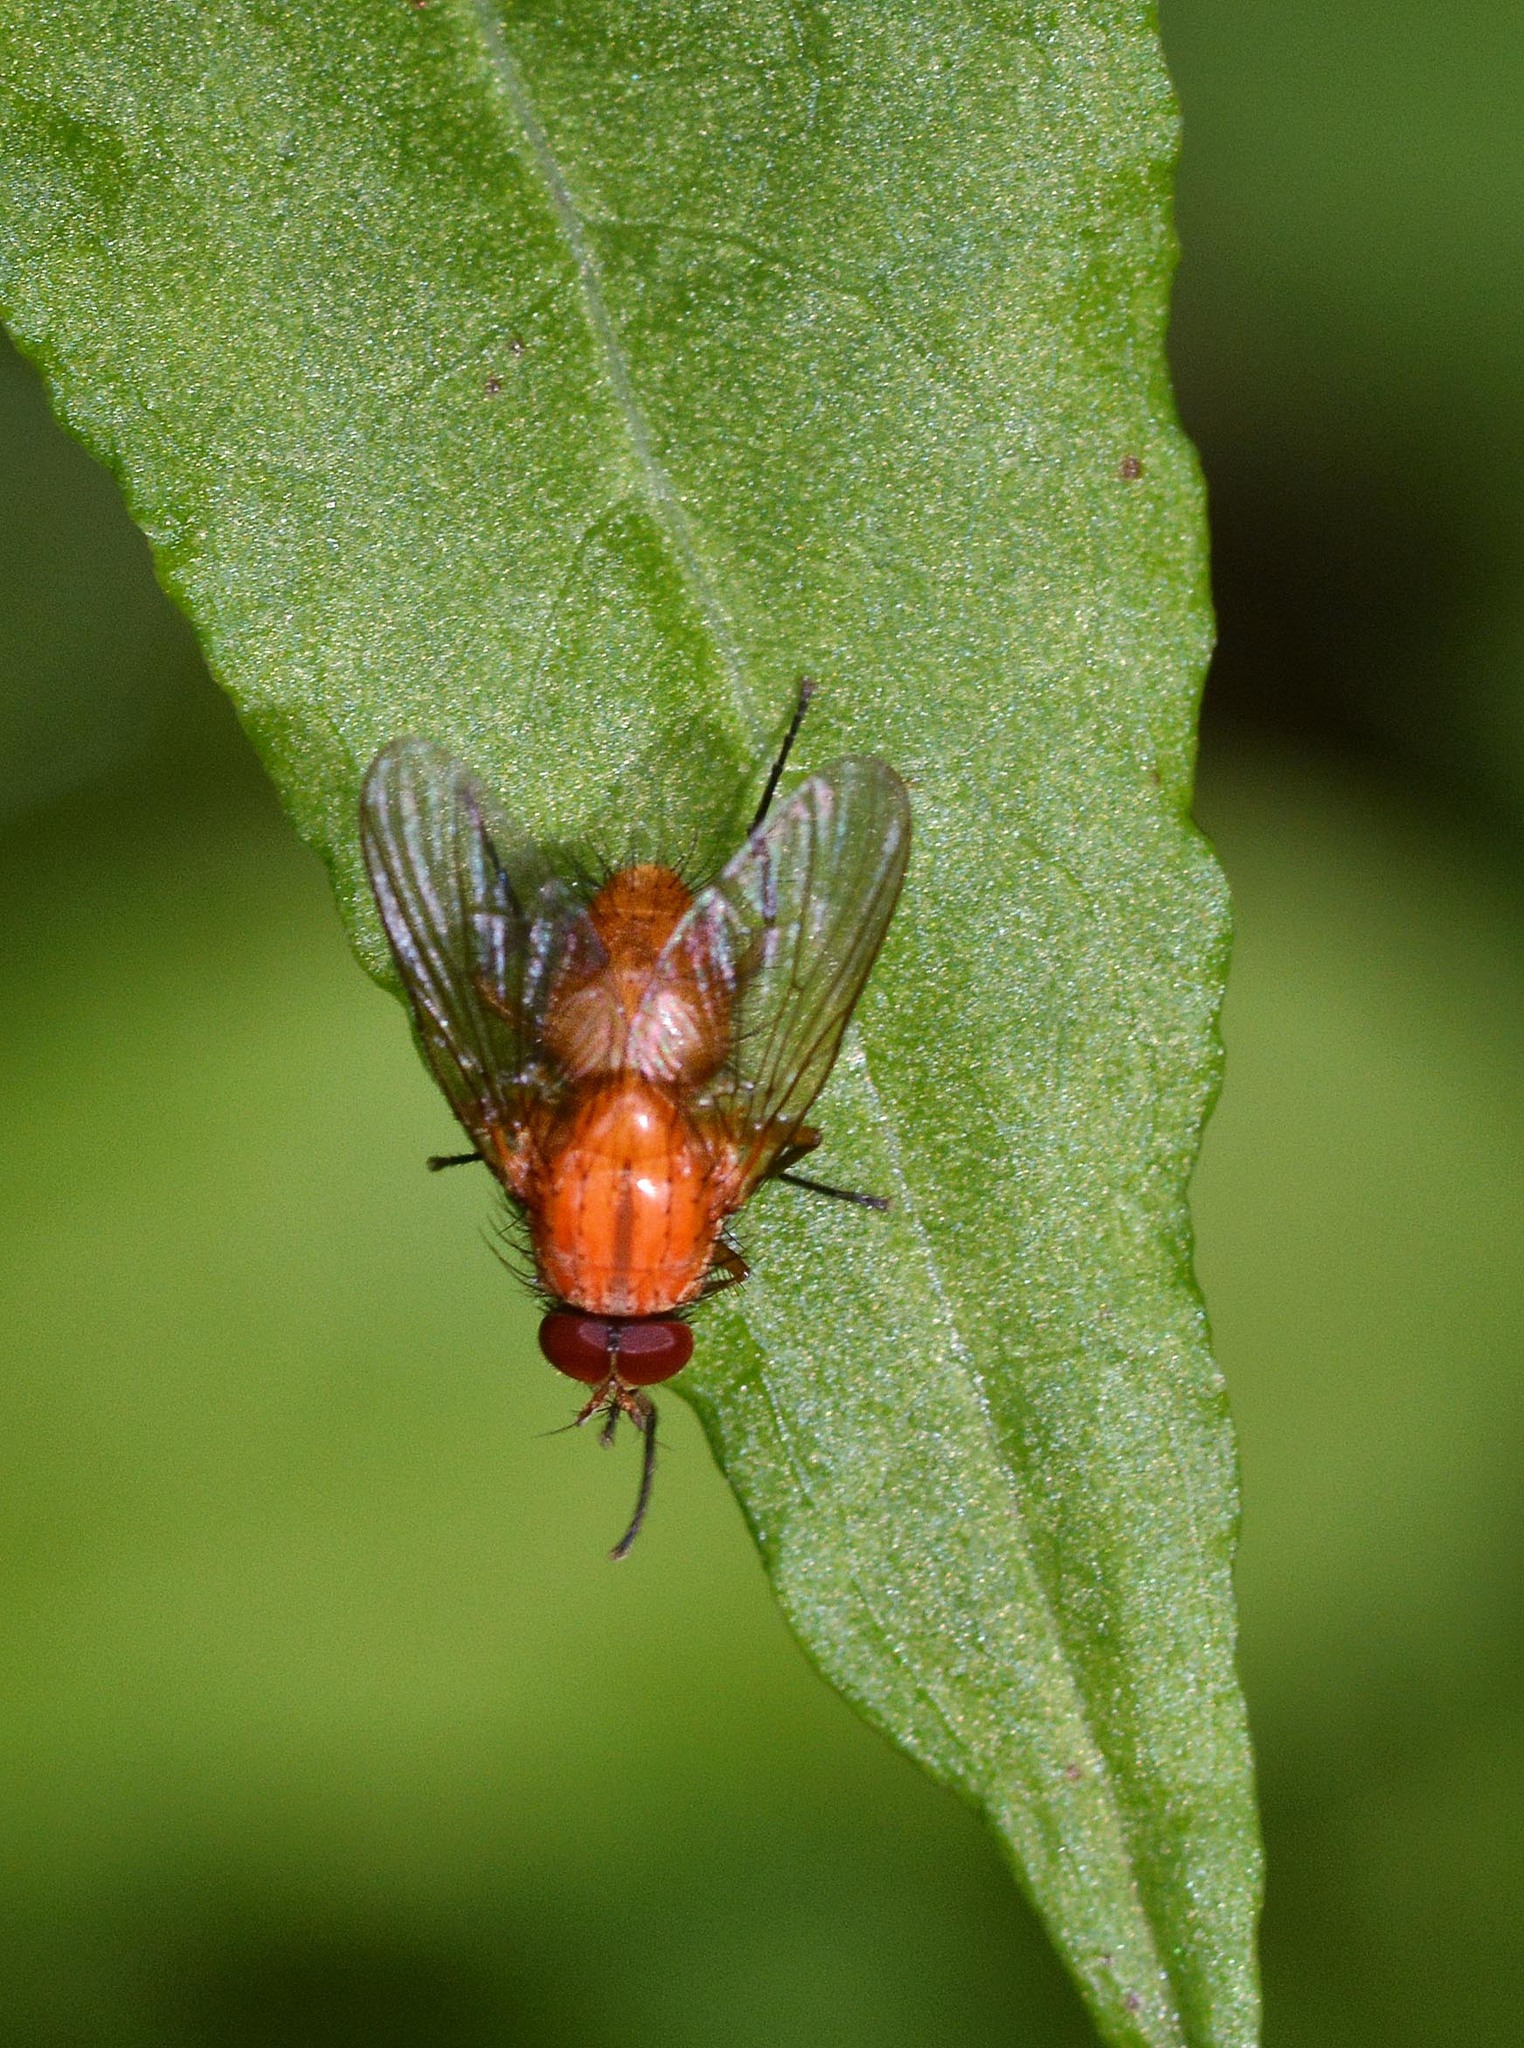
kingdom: Animalia
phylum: Arthropoda
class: Insecta
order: Diptera
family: Muscidae
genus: Phaonia
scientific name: Phaonia pallida
